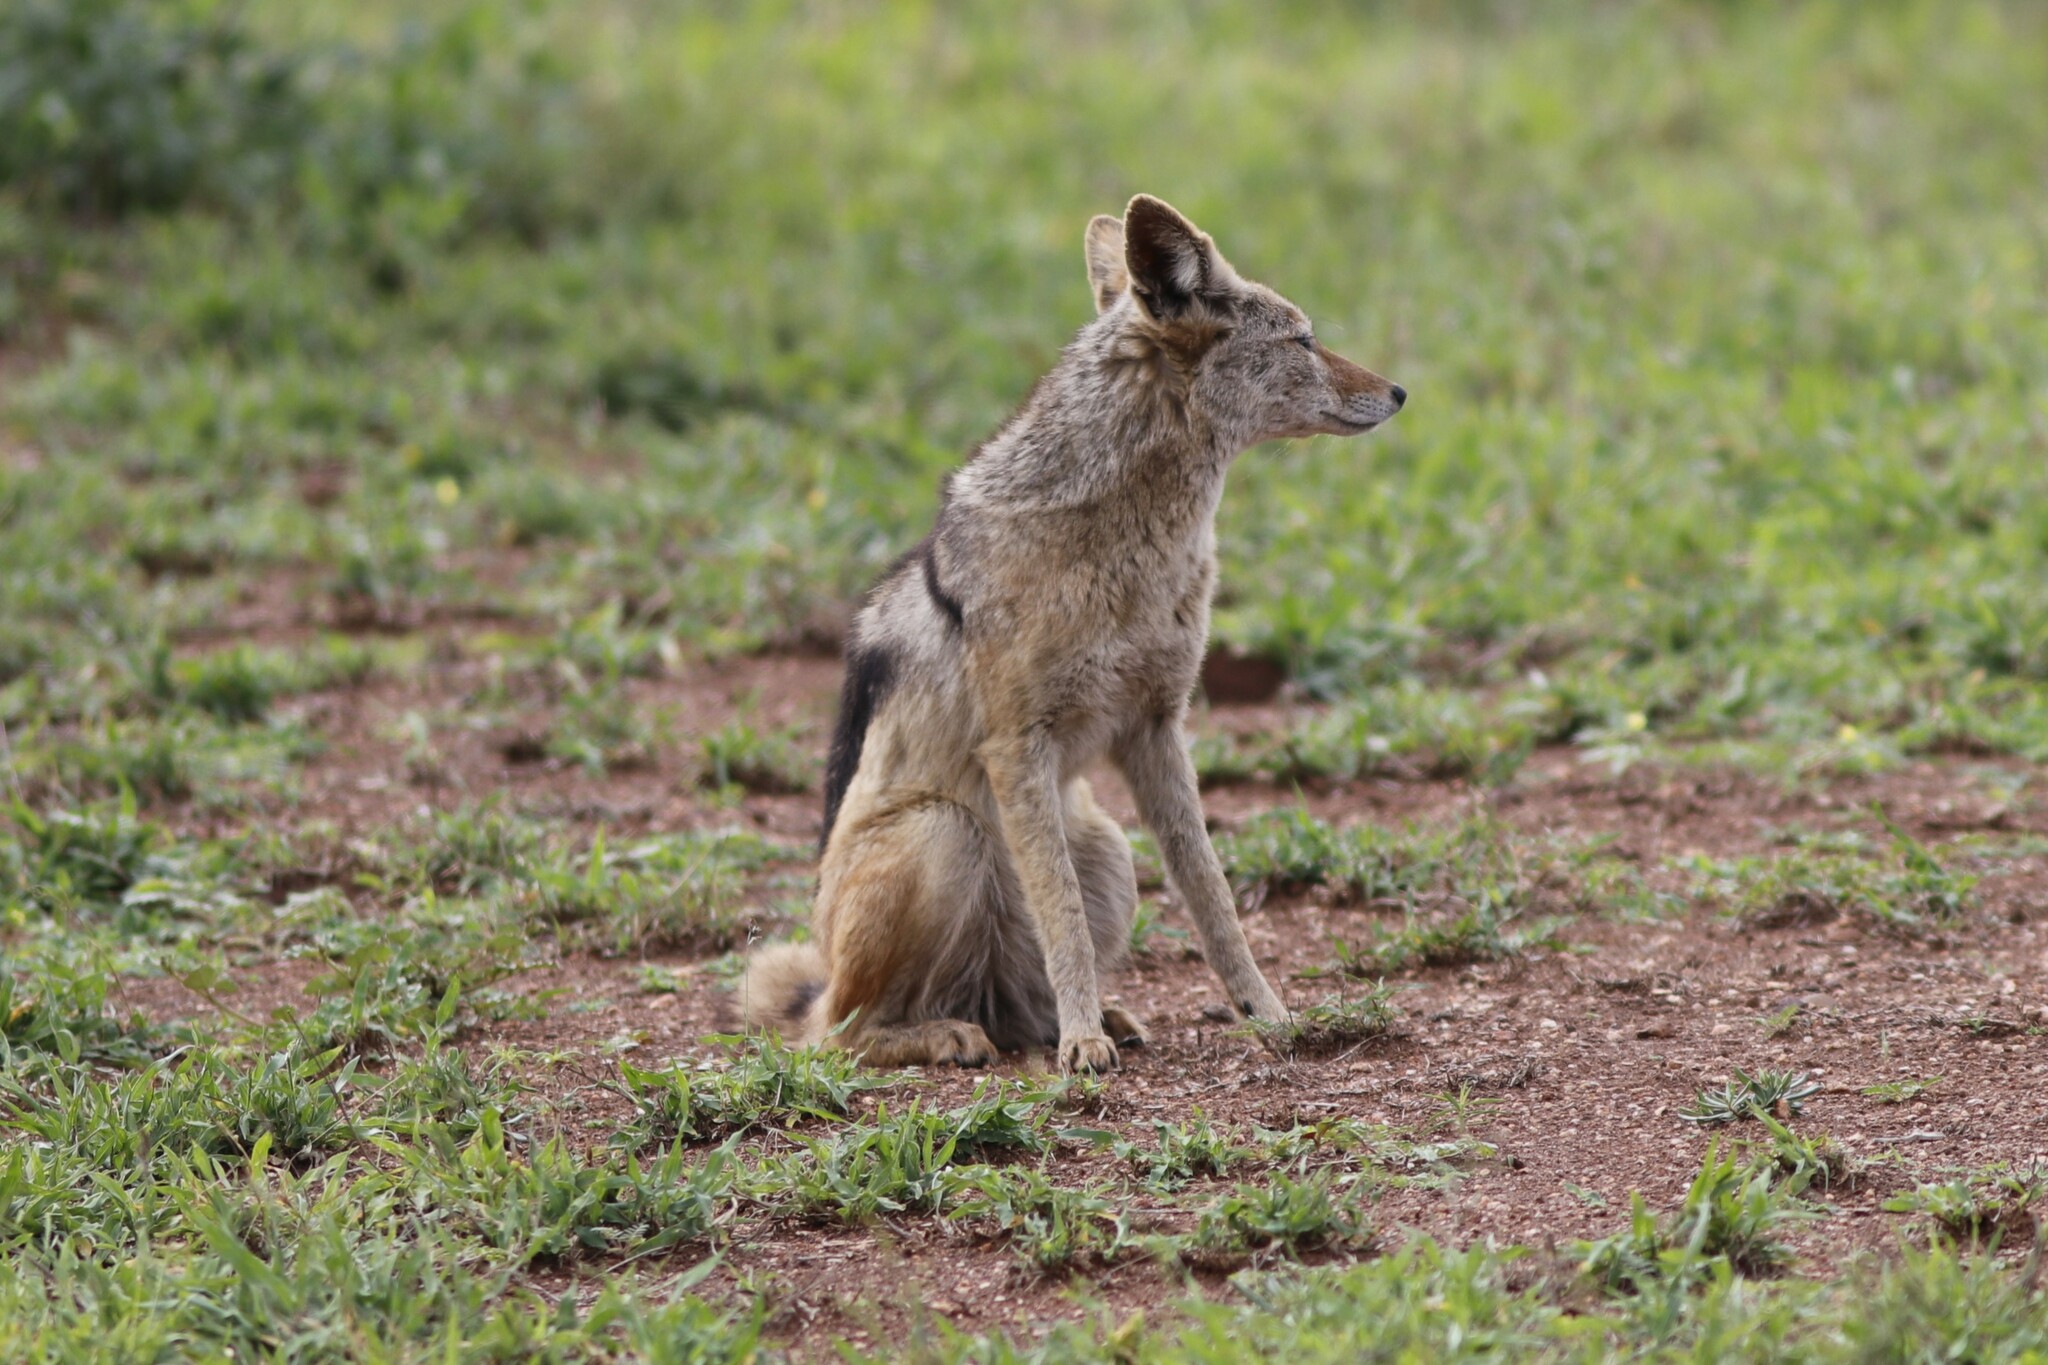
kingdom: Animalia
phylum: Chordata
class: Mammalia
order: Carnivora
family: Canidae
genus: Lupulella
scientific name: Lupulella
